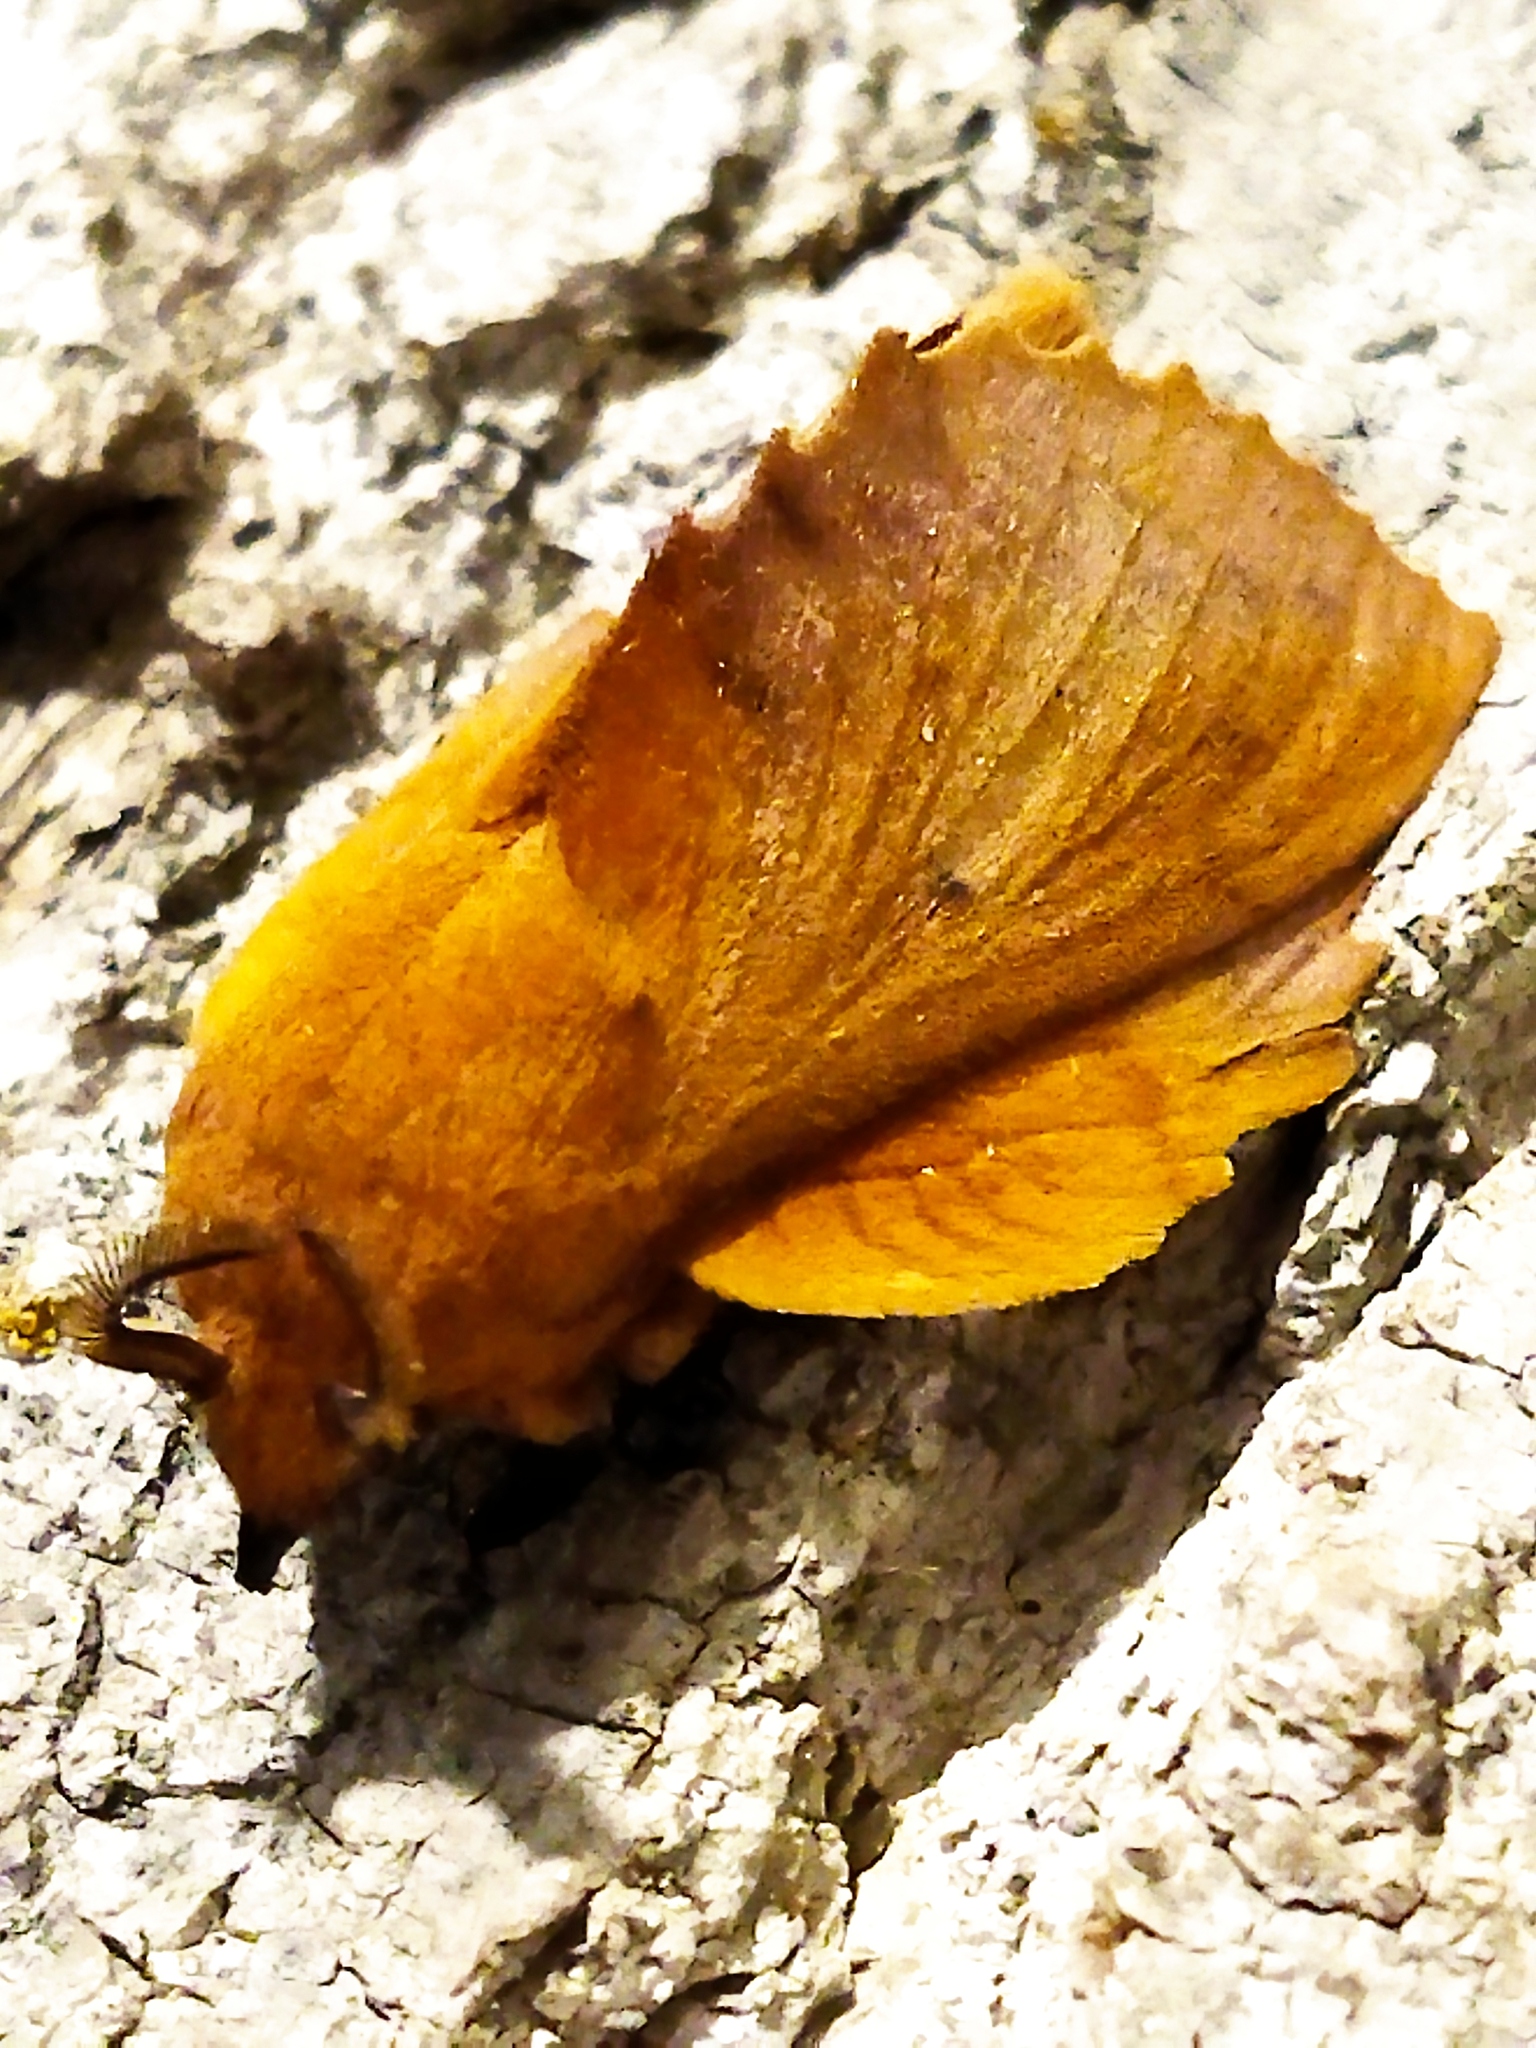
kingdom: Animalia
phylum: Arthropoda
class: Insecta
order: Lepidoptera
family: Lasiocampidae
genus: Gastropacha
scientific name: Gastropacha quercifolia
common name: Lappet
